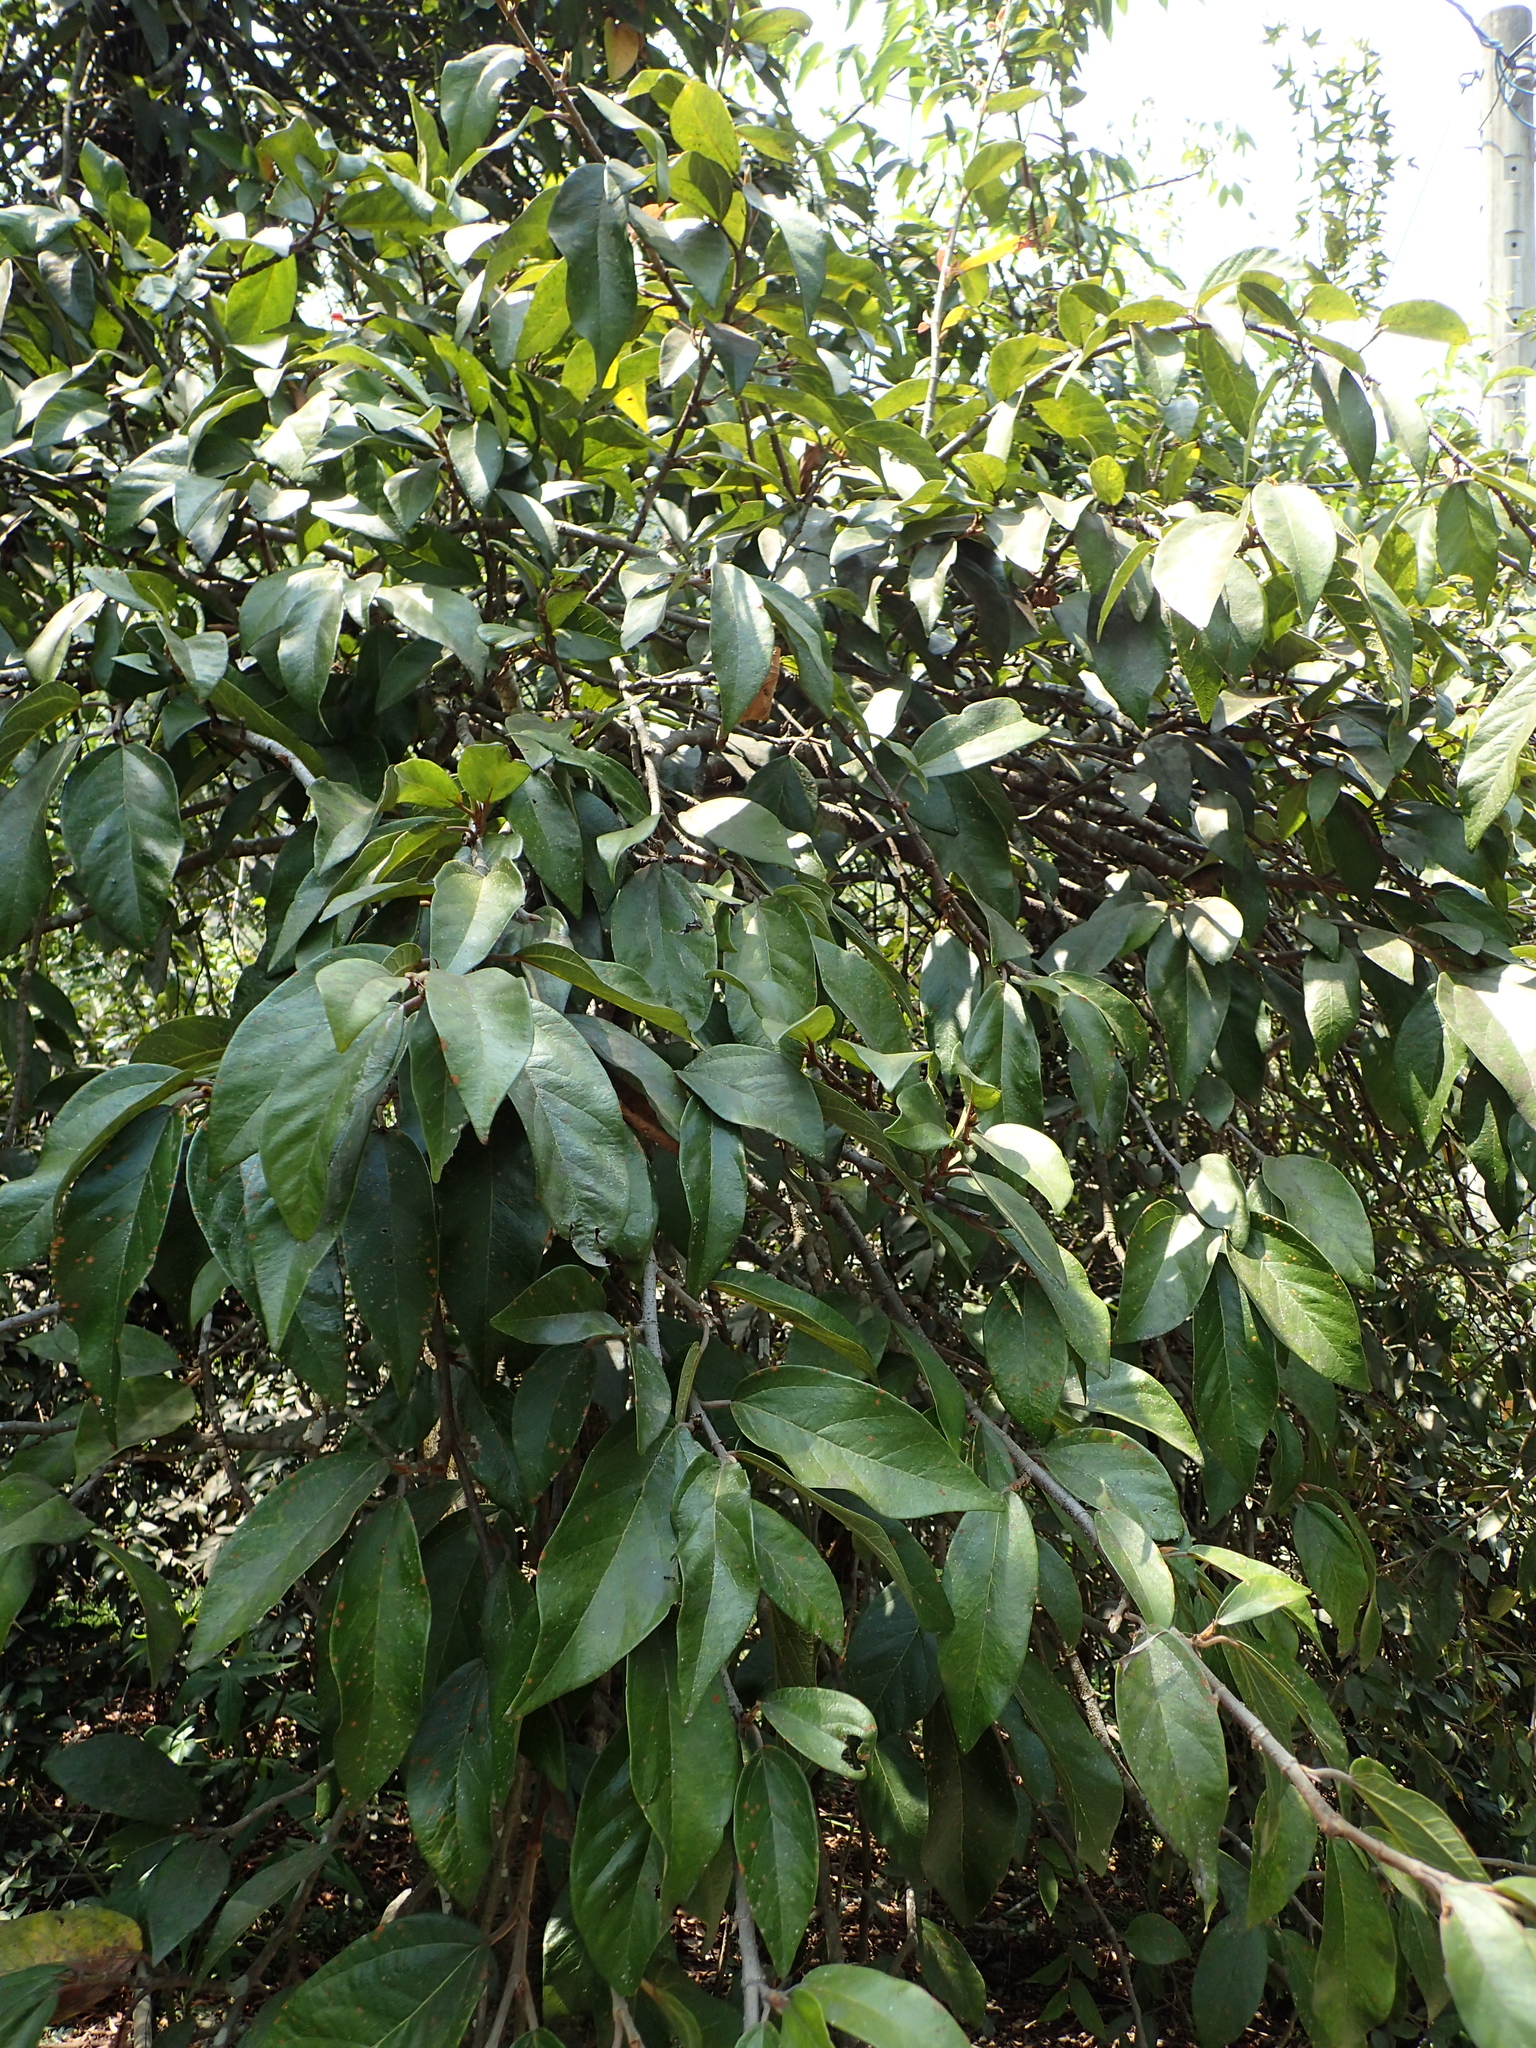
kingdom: Plantae
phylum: Tracheophyta
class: Magnoliopsida
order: Rosales
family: Moraceae
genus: Ficus
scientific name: Ficus pumila
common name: Climbingfig
